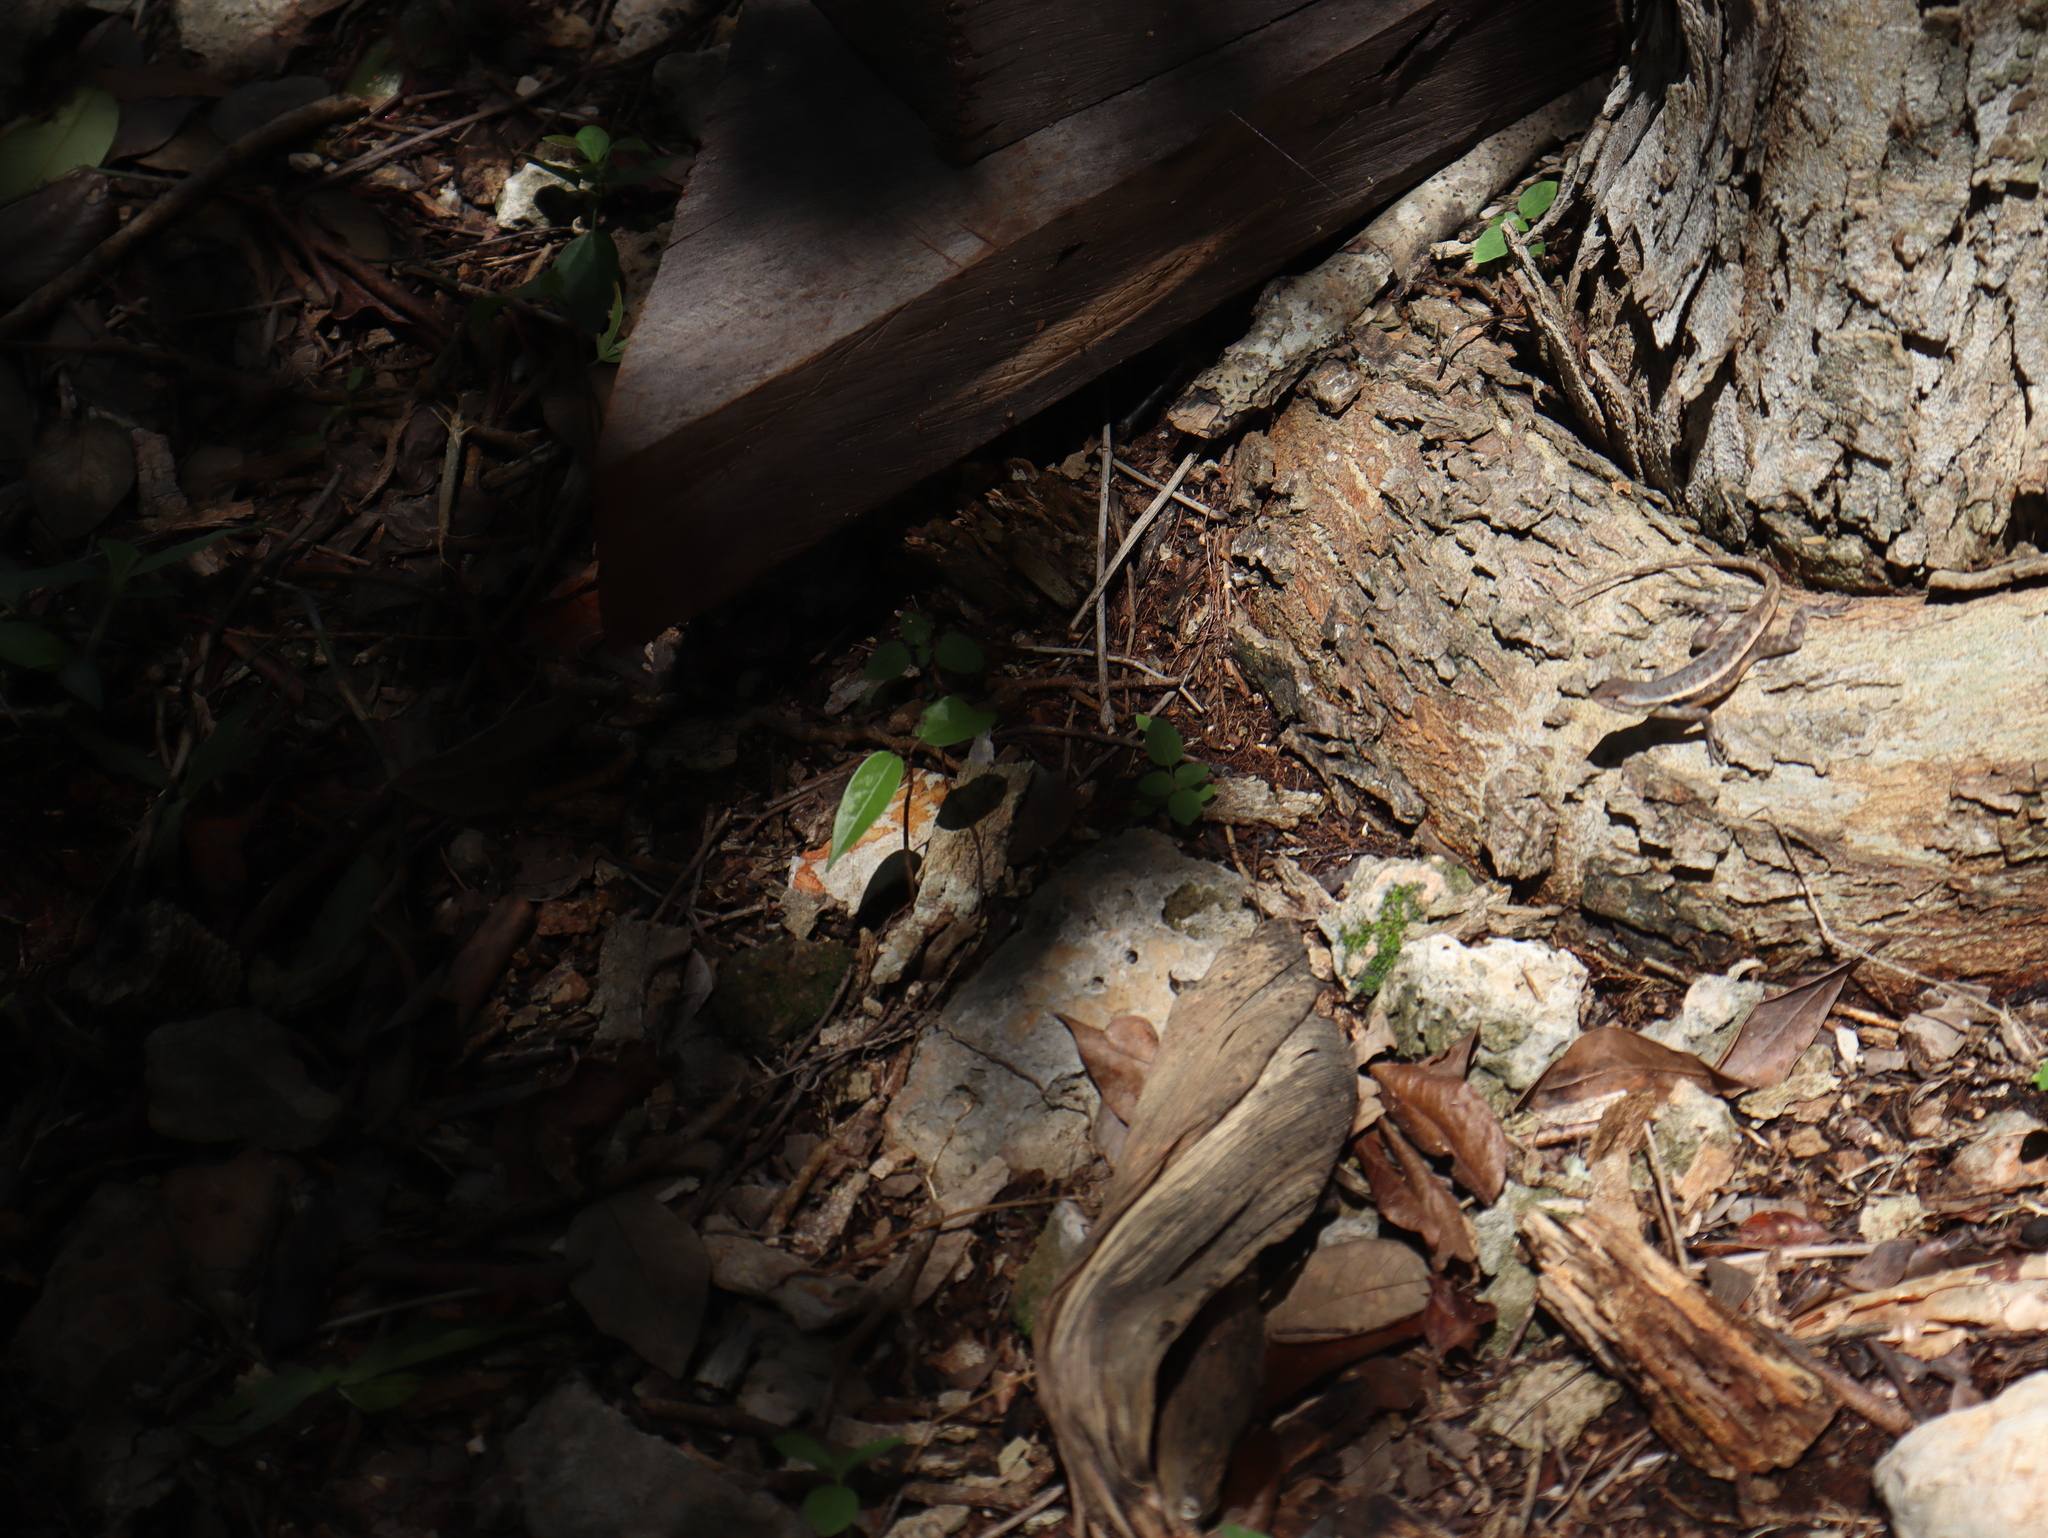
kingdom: Animalia
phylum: Chordata
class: Squamata
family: Phrynosomatidae
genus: Sceloporus
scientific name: Sceloporus chrysostictus
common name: Yellow-spotted spiny lizard
